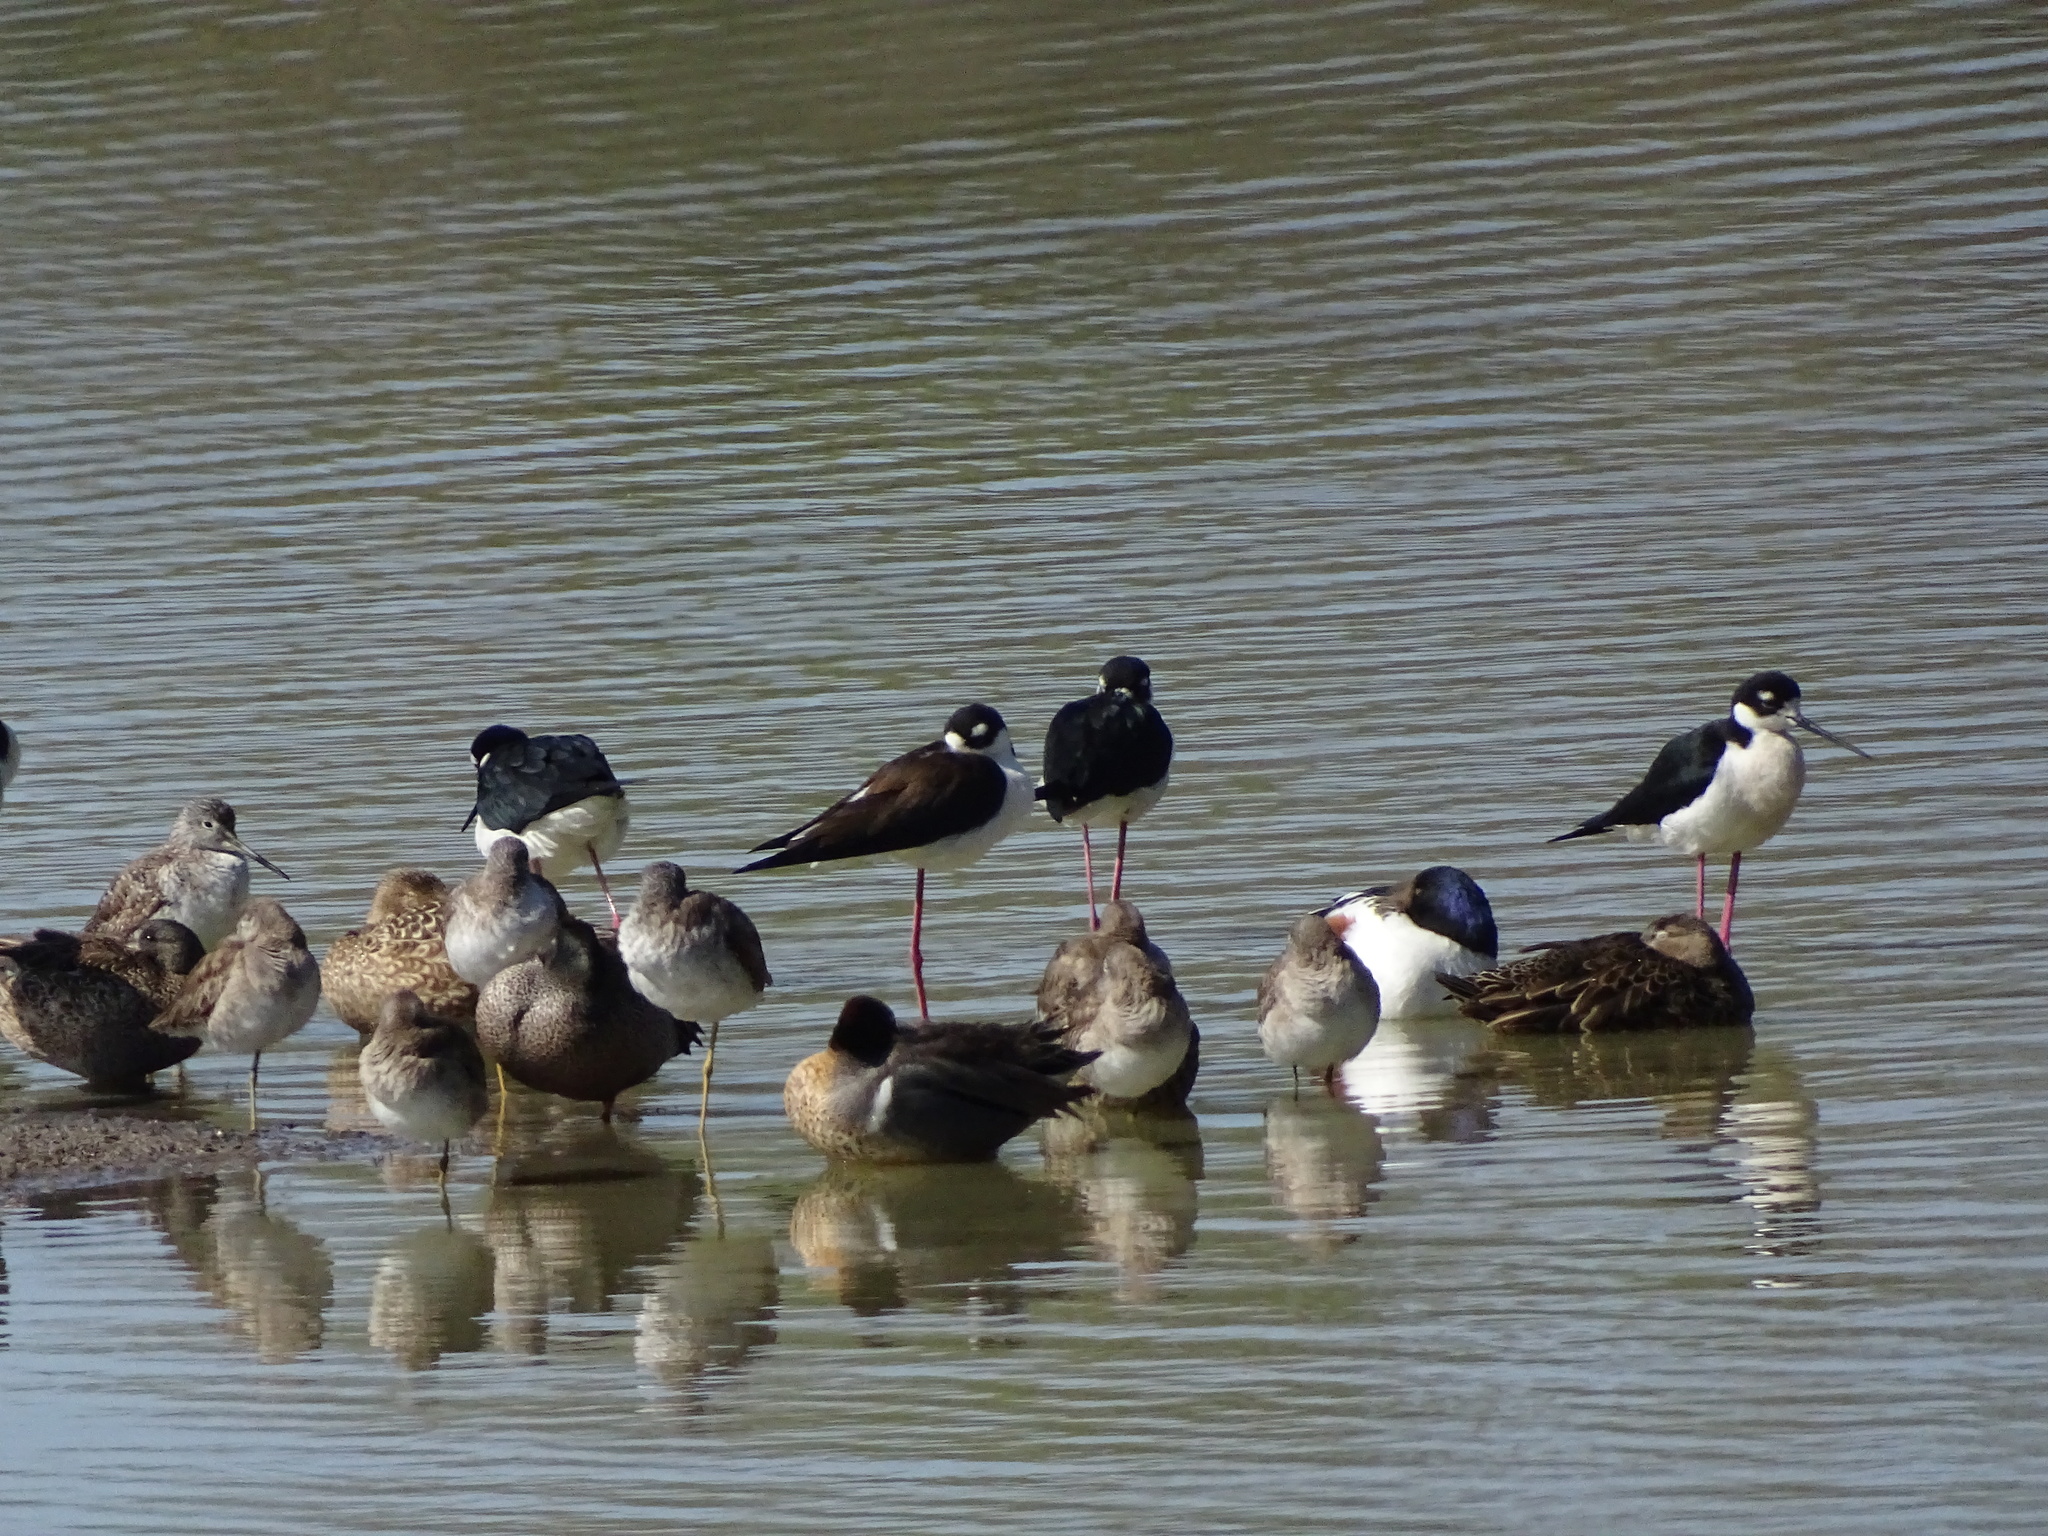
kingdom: Animalia
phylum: Chordata
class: Aves
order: Charadriiformes
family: Recurvirostridae
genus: Himantopus
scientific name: Himantopus mexicanus
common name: Black-necked stilt
